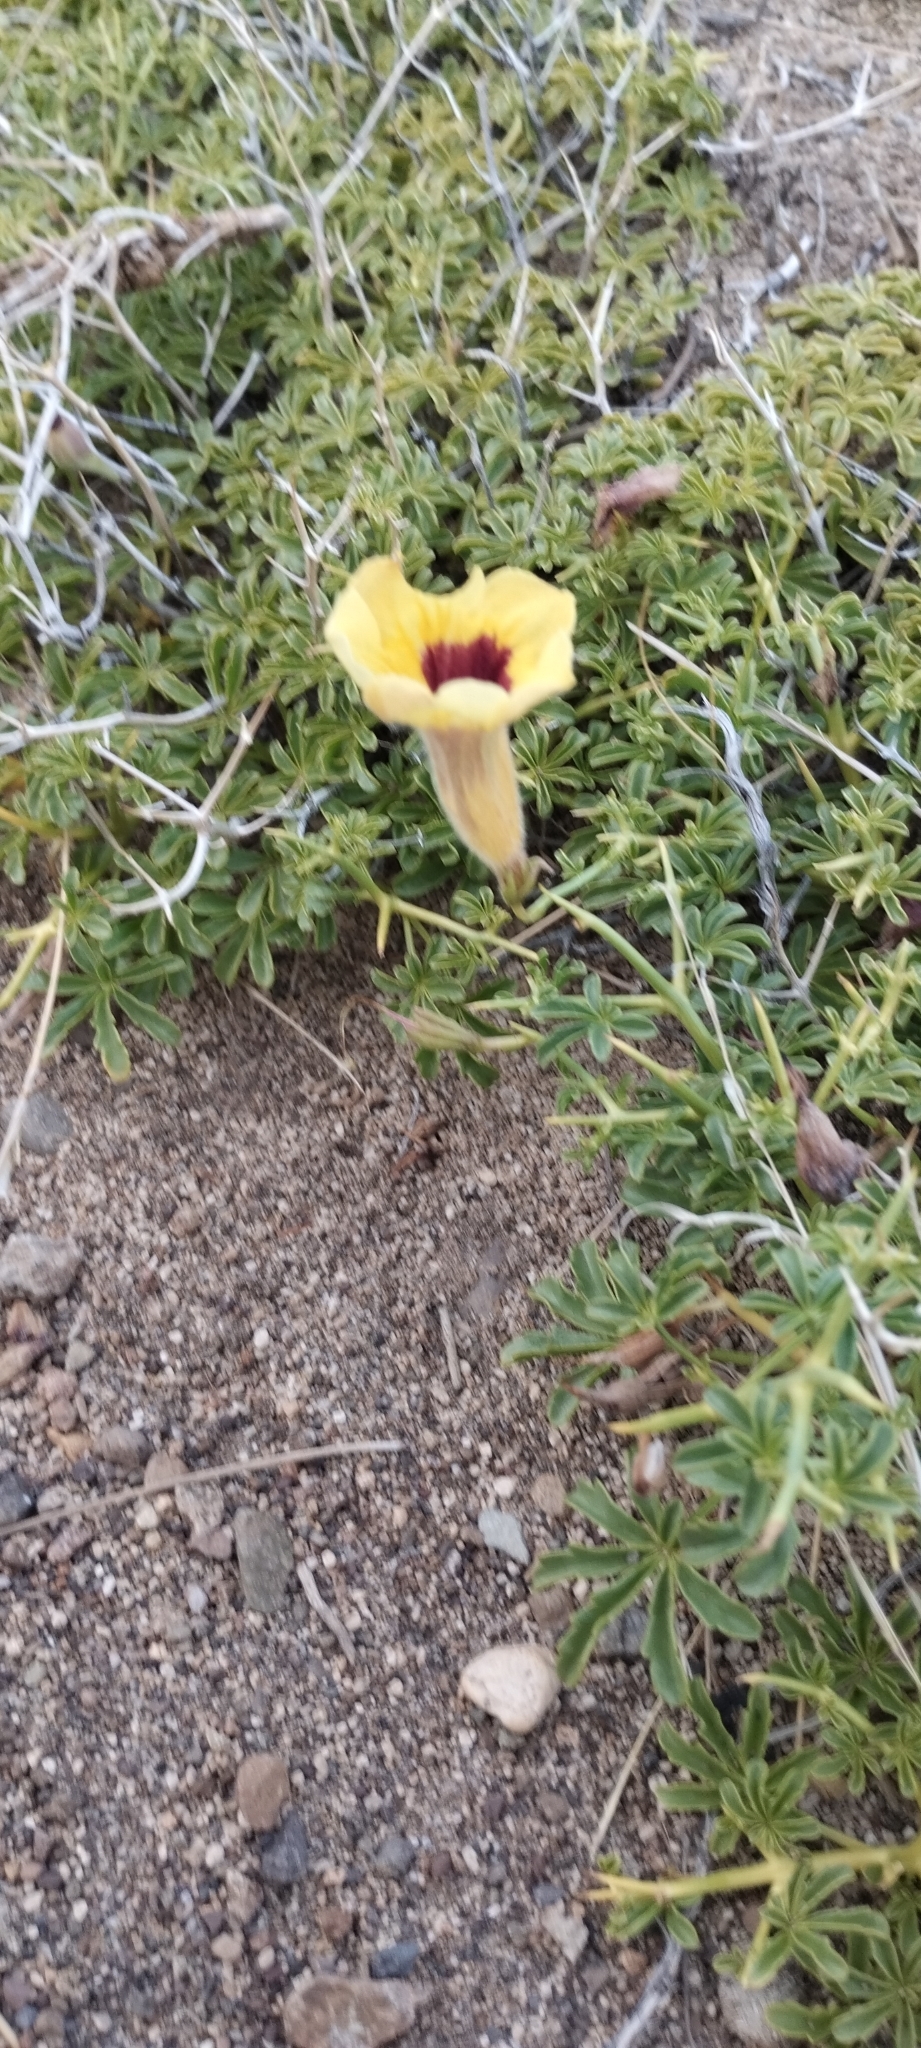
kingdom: Plantae
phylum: Tracheophyta
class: Magnoliopsida
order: Lamiales
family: Bignoniaceae
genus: Argylia
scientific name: Argylia bustillosii
